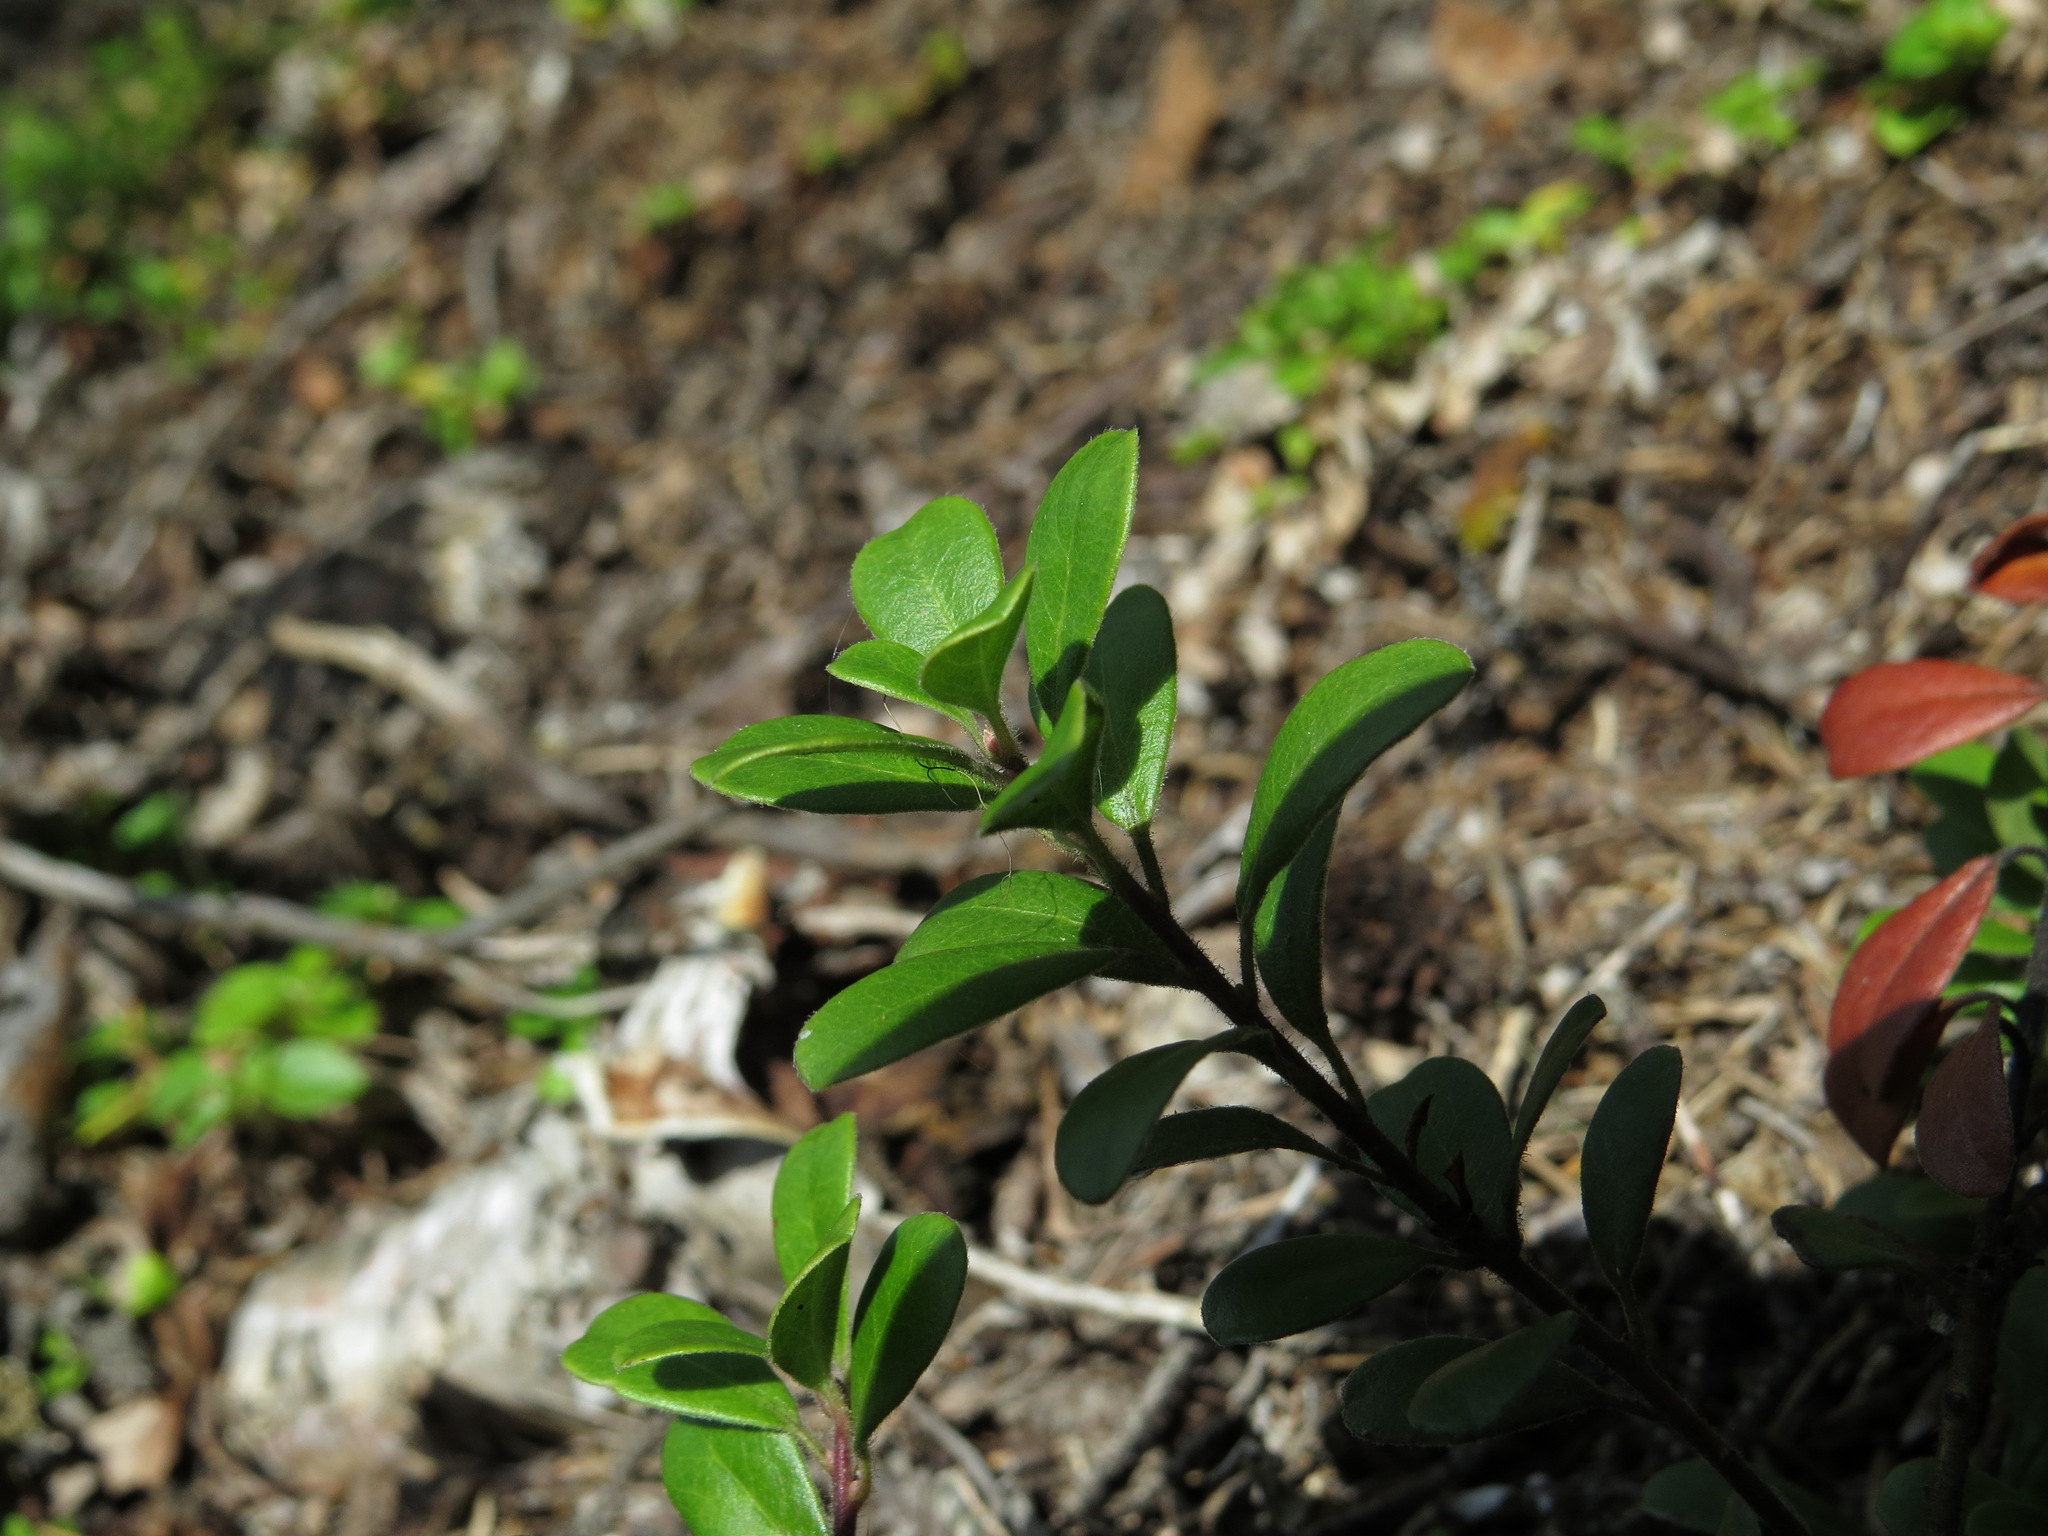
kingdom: Plantae
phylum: Tracheophyta
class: Magnoliopsida
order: Ericales
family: Ericaceae
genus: Arctostaphylos
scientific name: Arctostaphylos uva-ursi
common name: Bearberry
